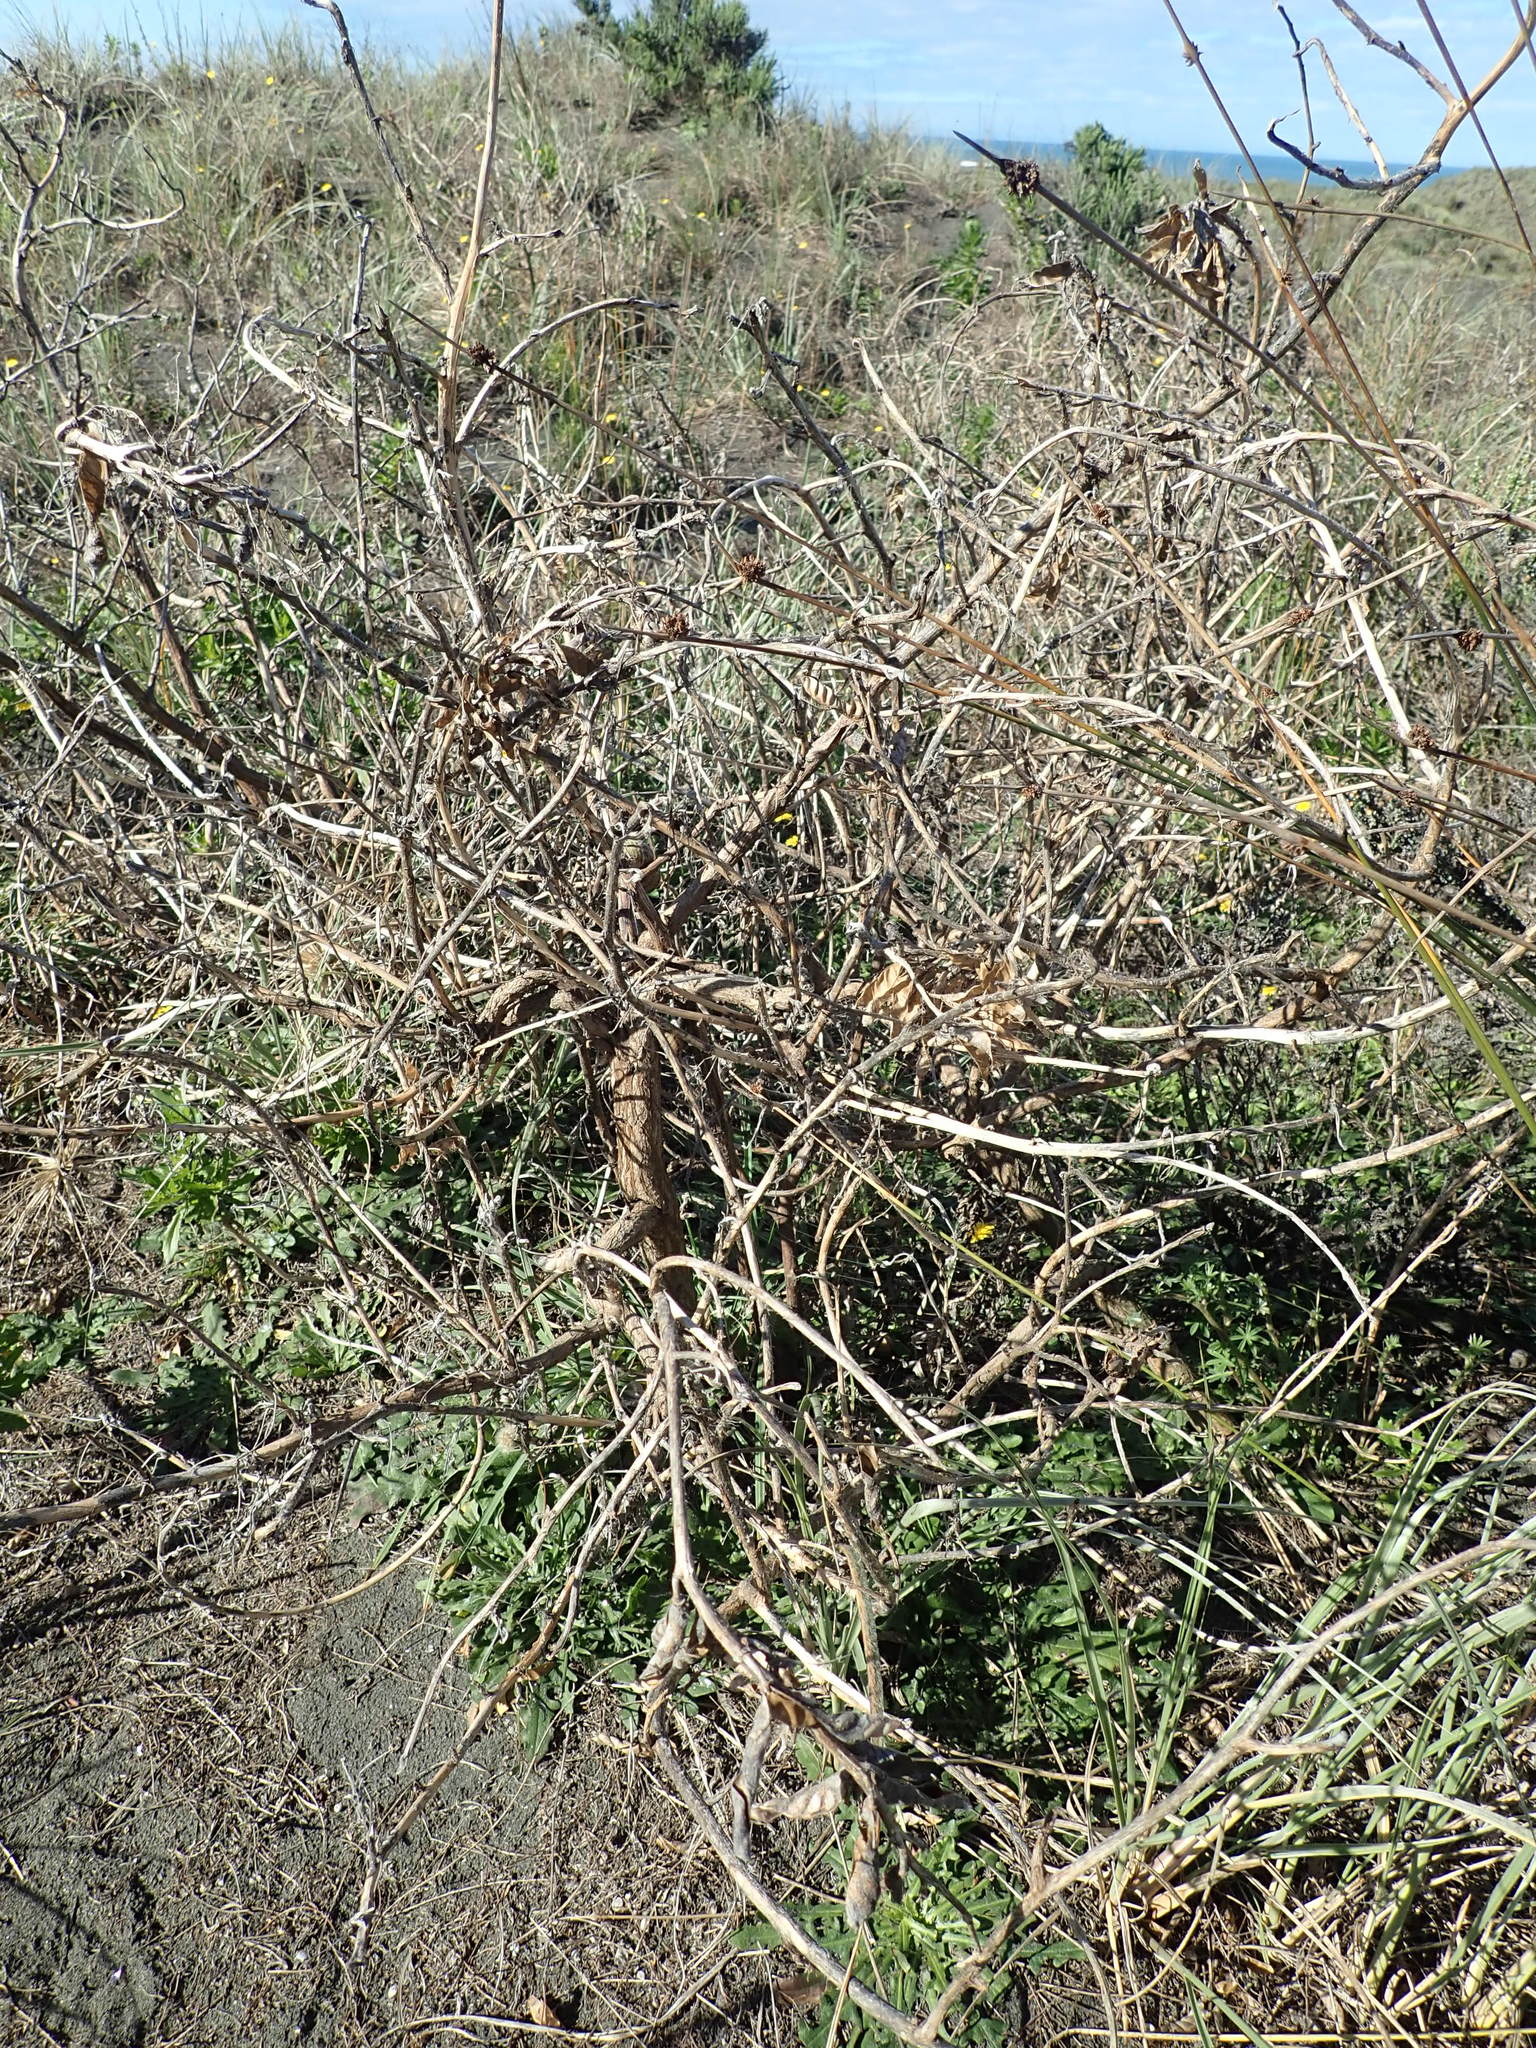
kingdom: Plantae
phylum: Tracheophyta
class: Magnoliopsida
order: Fabales
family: Fabaceae
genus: Lupinus
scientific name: Lupinus arboreus
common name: Yellow bush lupine
